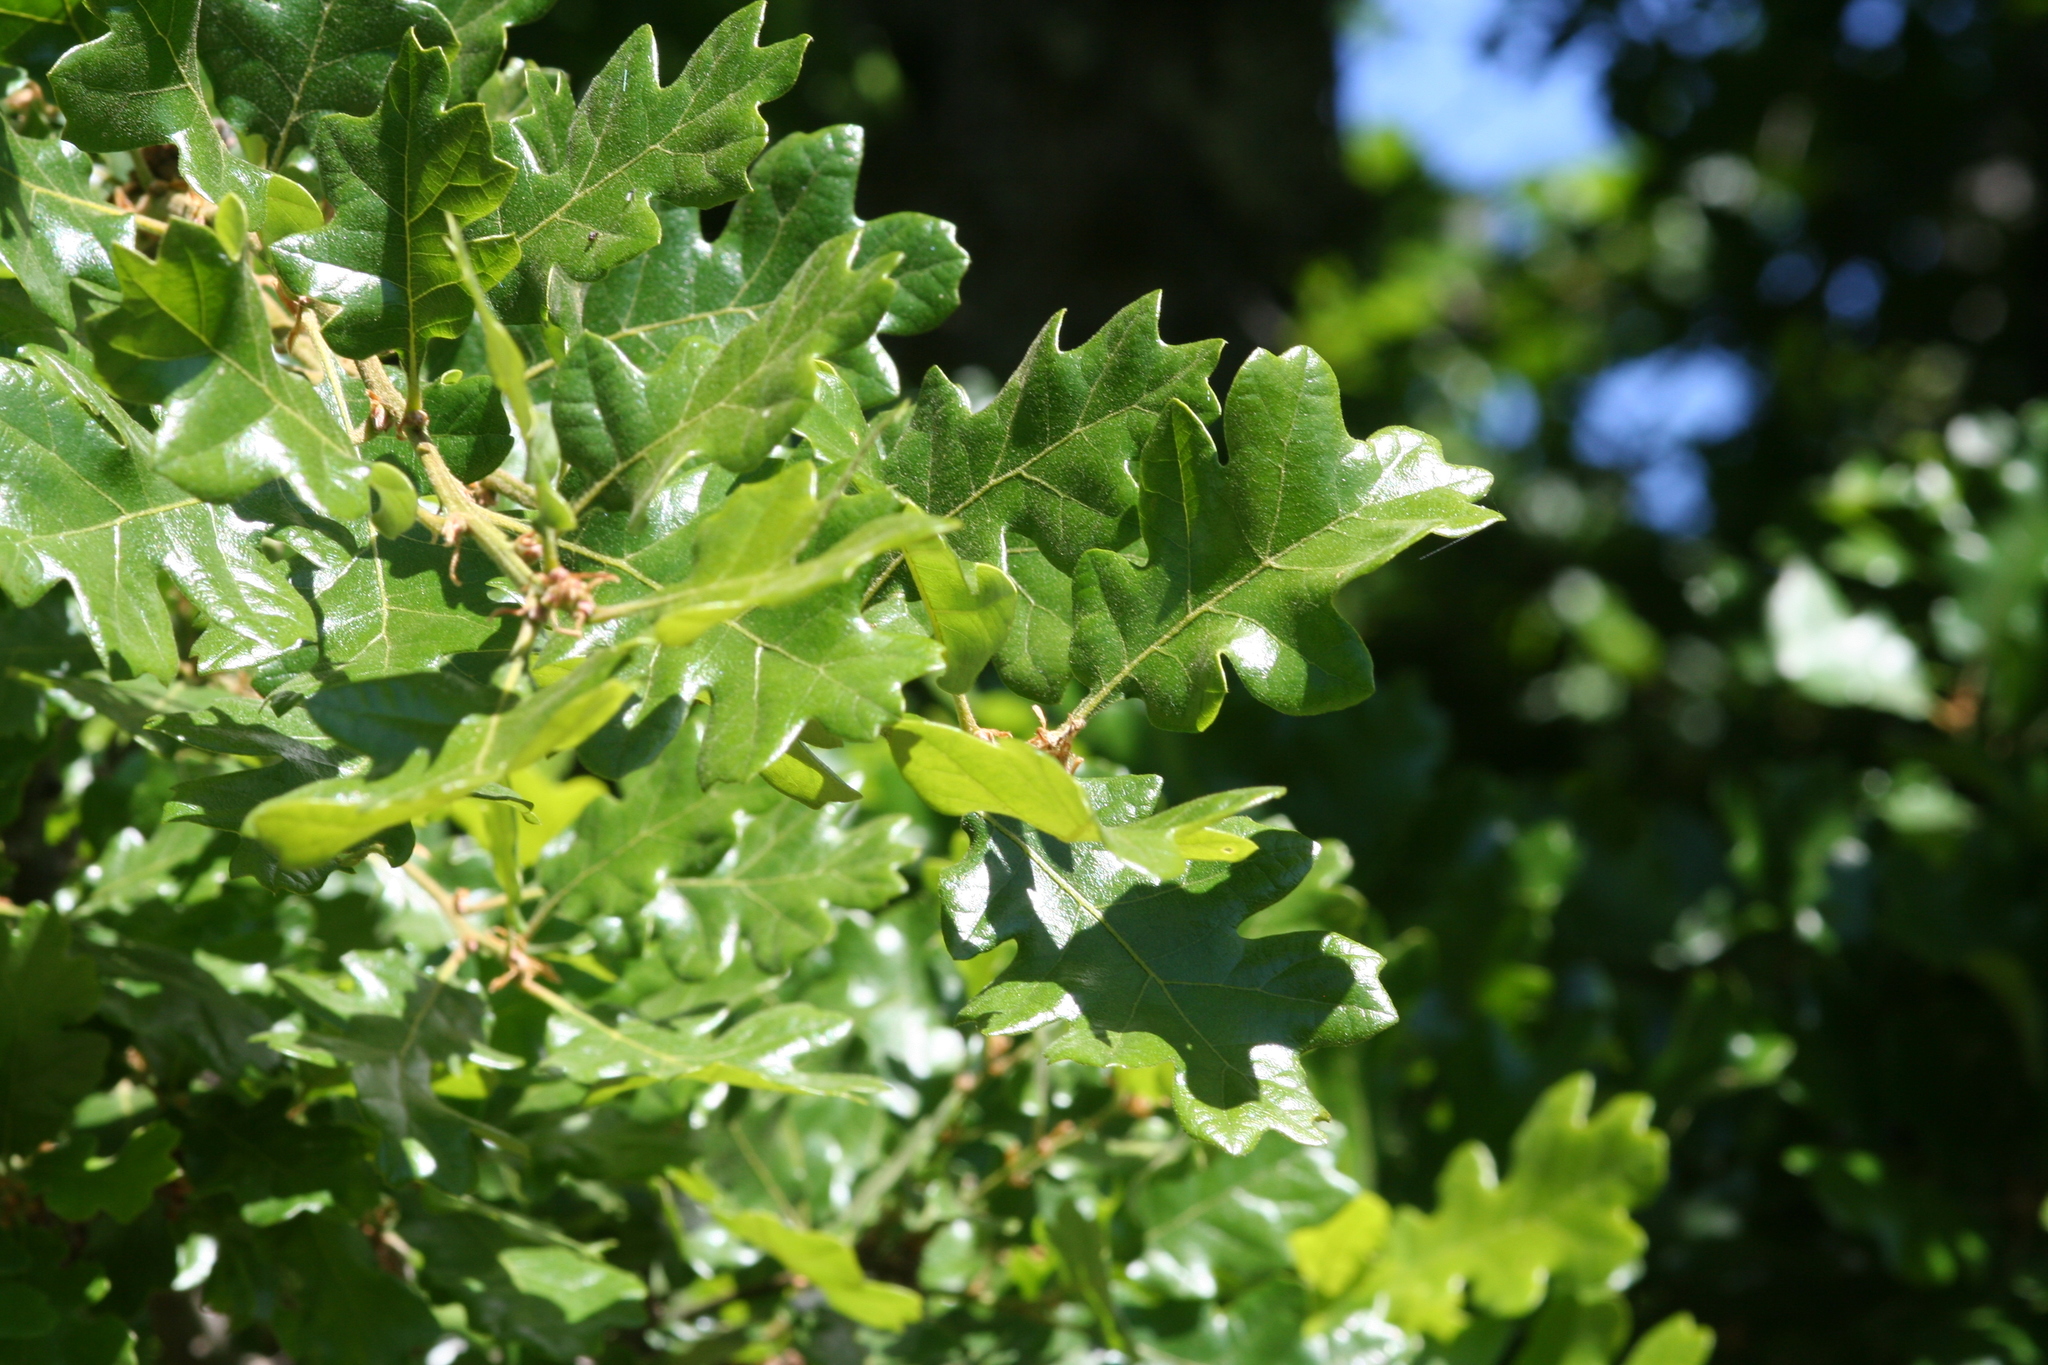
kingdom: Plantae
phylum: Tracheophyta
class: Magnoliopsida
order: Fagales
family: Fagaceae
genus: Quercus
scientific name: Quercus garryana
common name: Garry oak
